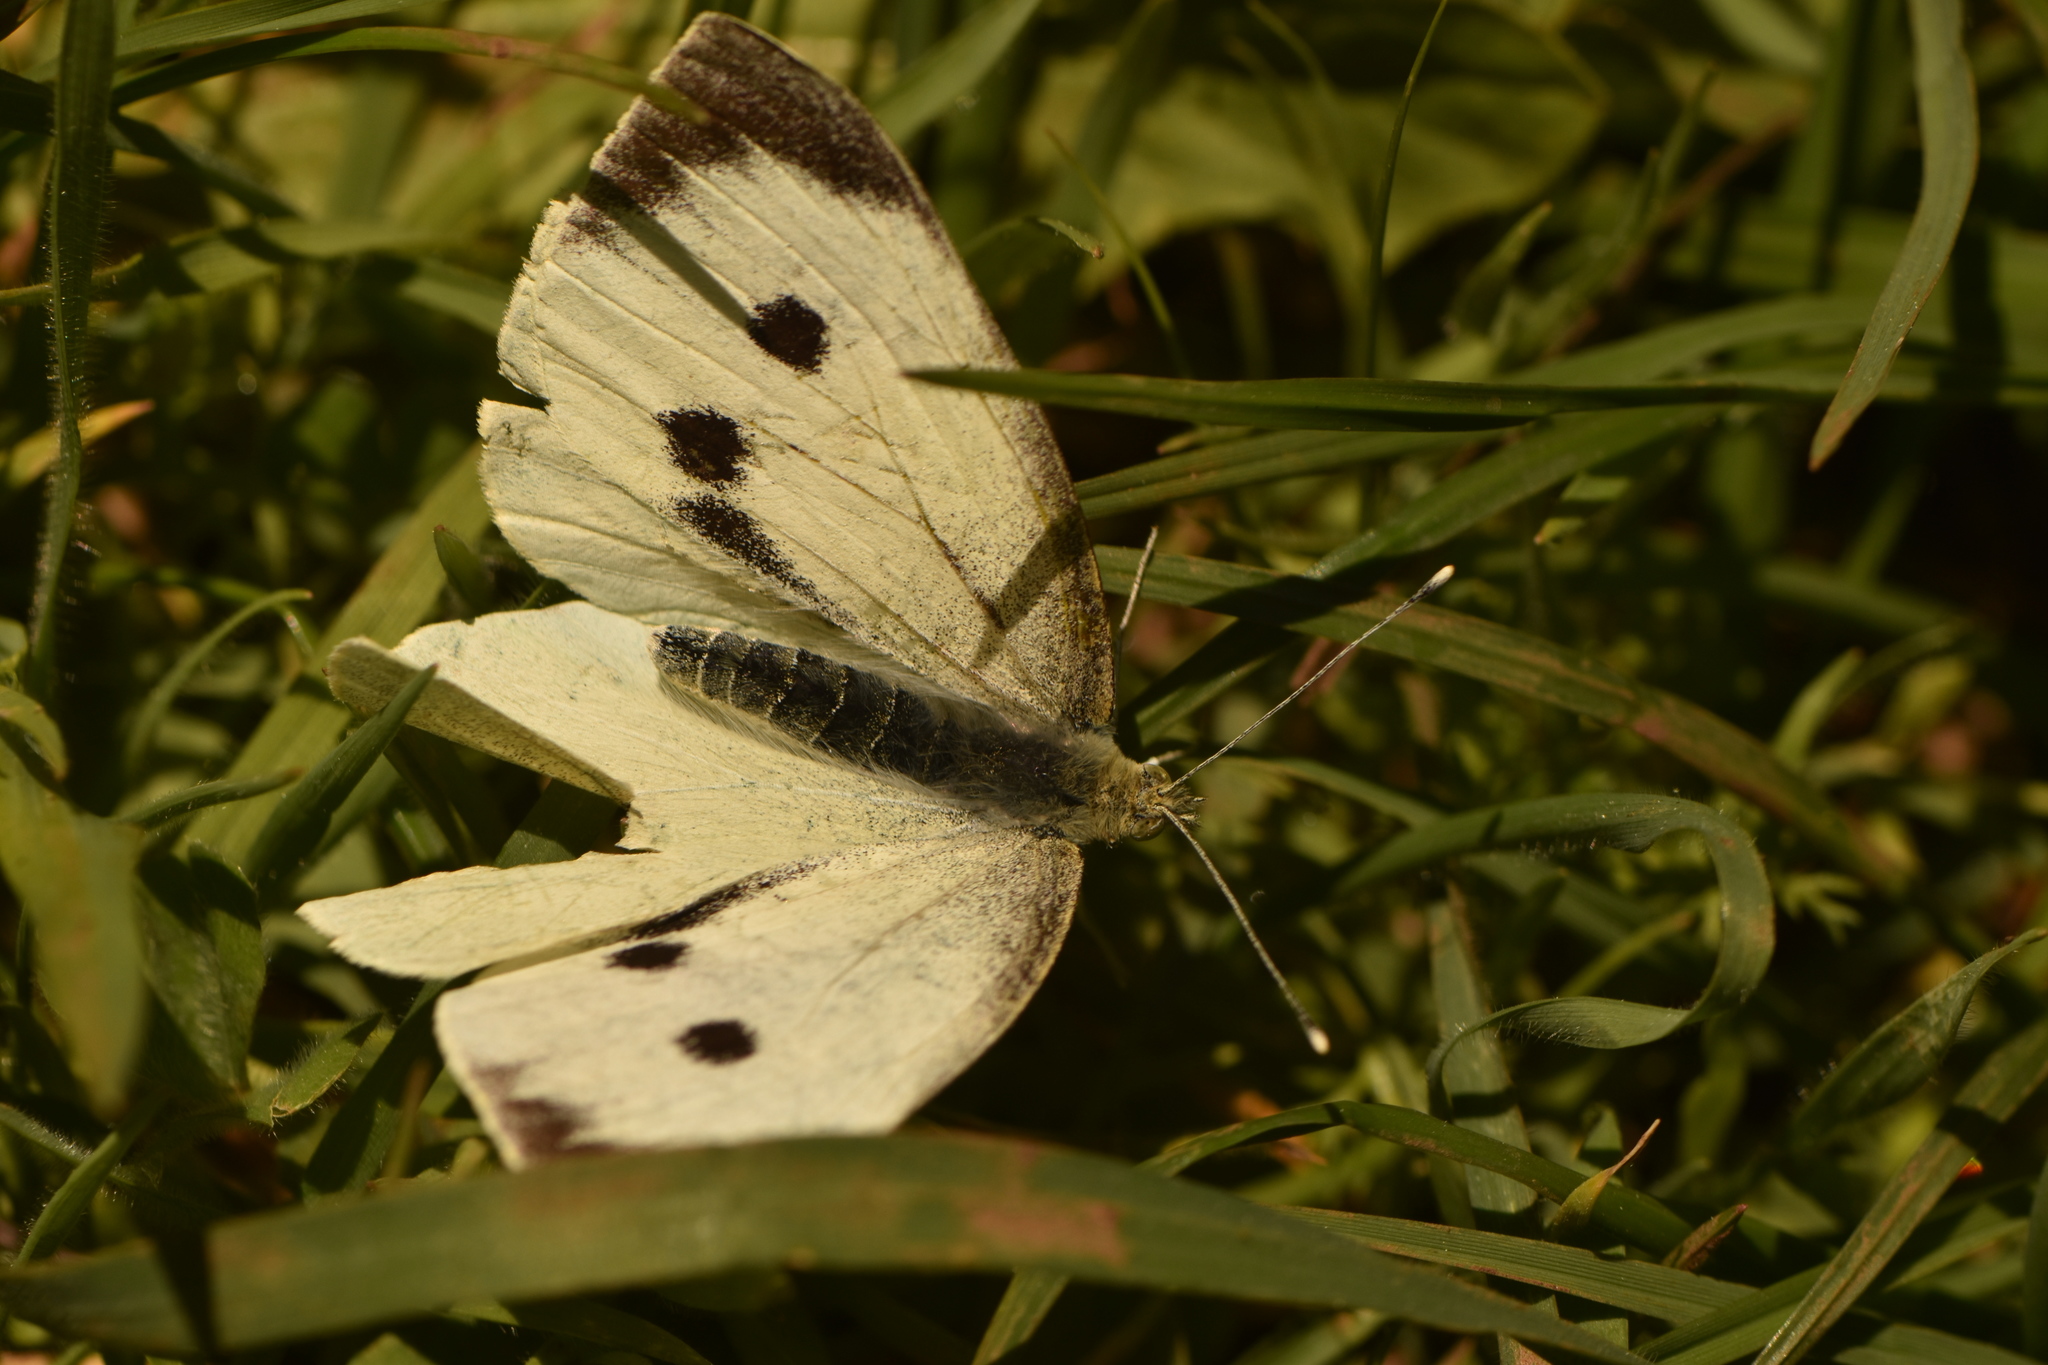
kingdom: Animalia
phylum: Arthropoda
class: Insecta
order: Lepidoptera
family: Pieridae
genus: Pieris
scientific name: Pieris brassicae
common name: Large white
